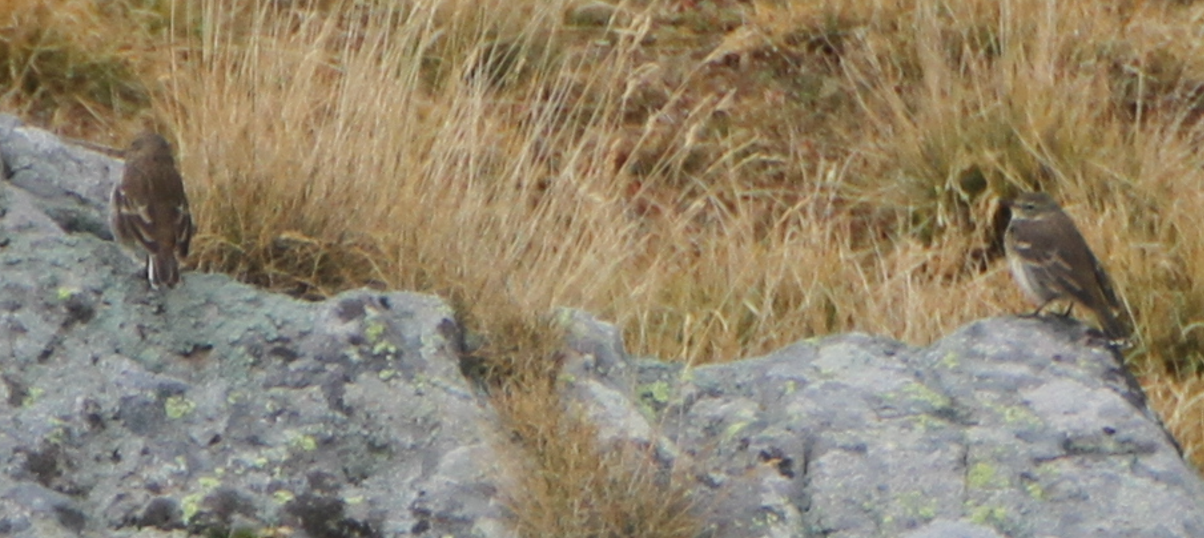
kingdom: Animalia
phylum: Chordata
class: Aves
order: Passeriformes
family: Motacillidae
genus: Anthus
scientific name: Anthus spinoletta
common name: Water pipit
